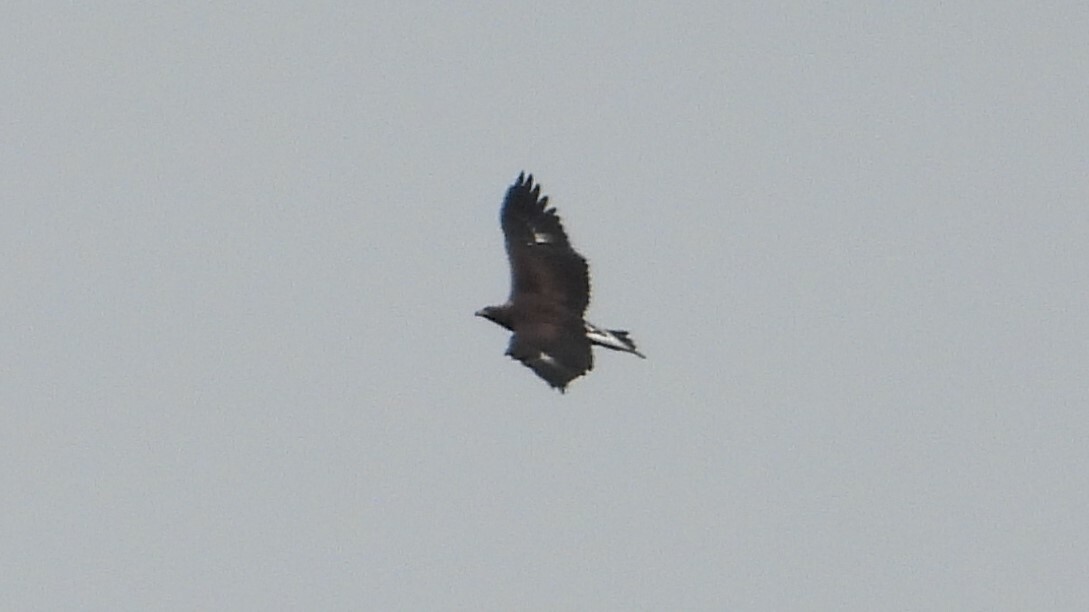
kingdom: Animalia
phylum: Chordata
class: Aves
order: Accipitriformes
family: Accipitridae
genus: Aquila
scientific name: Aquila chrysaetos
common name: Golden eagle
